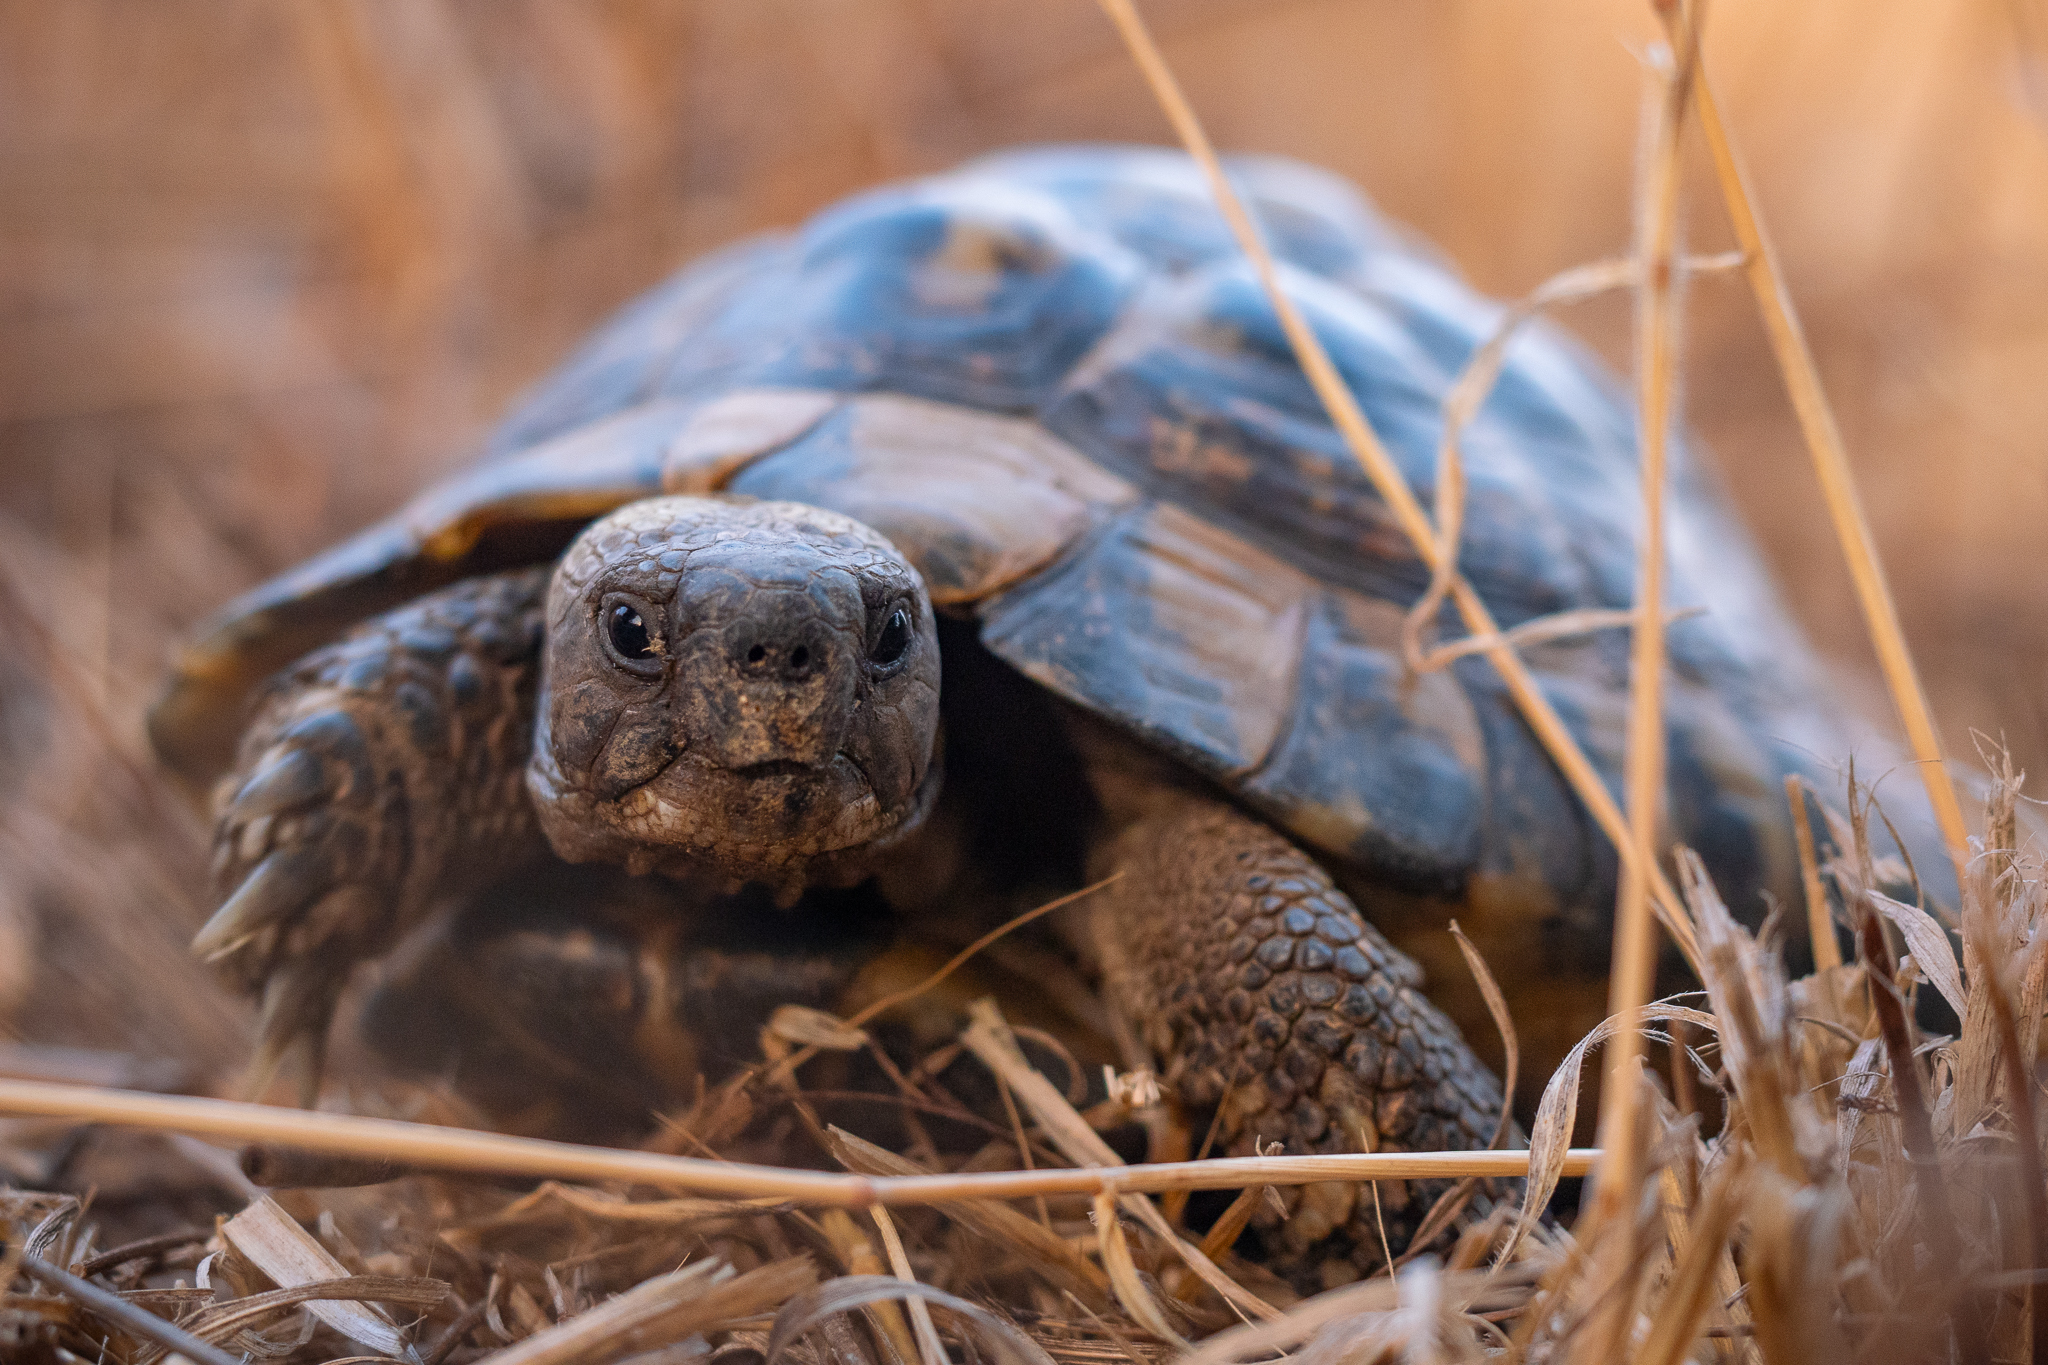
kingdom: Animalia
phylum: Chordata
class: Testudines
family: Testudinidae
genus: Testudo
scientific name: Testudo hermanni
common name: Hermann's tortoise
